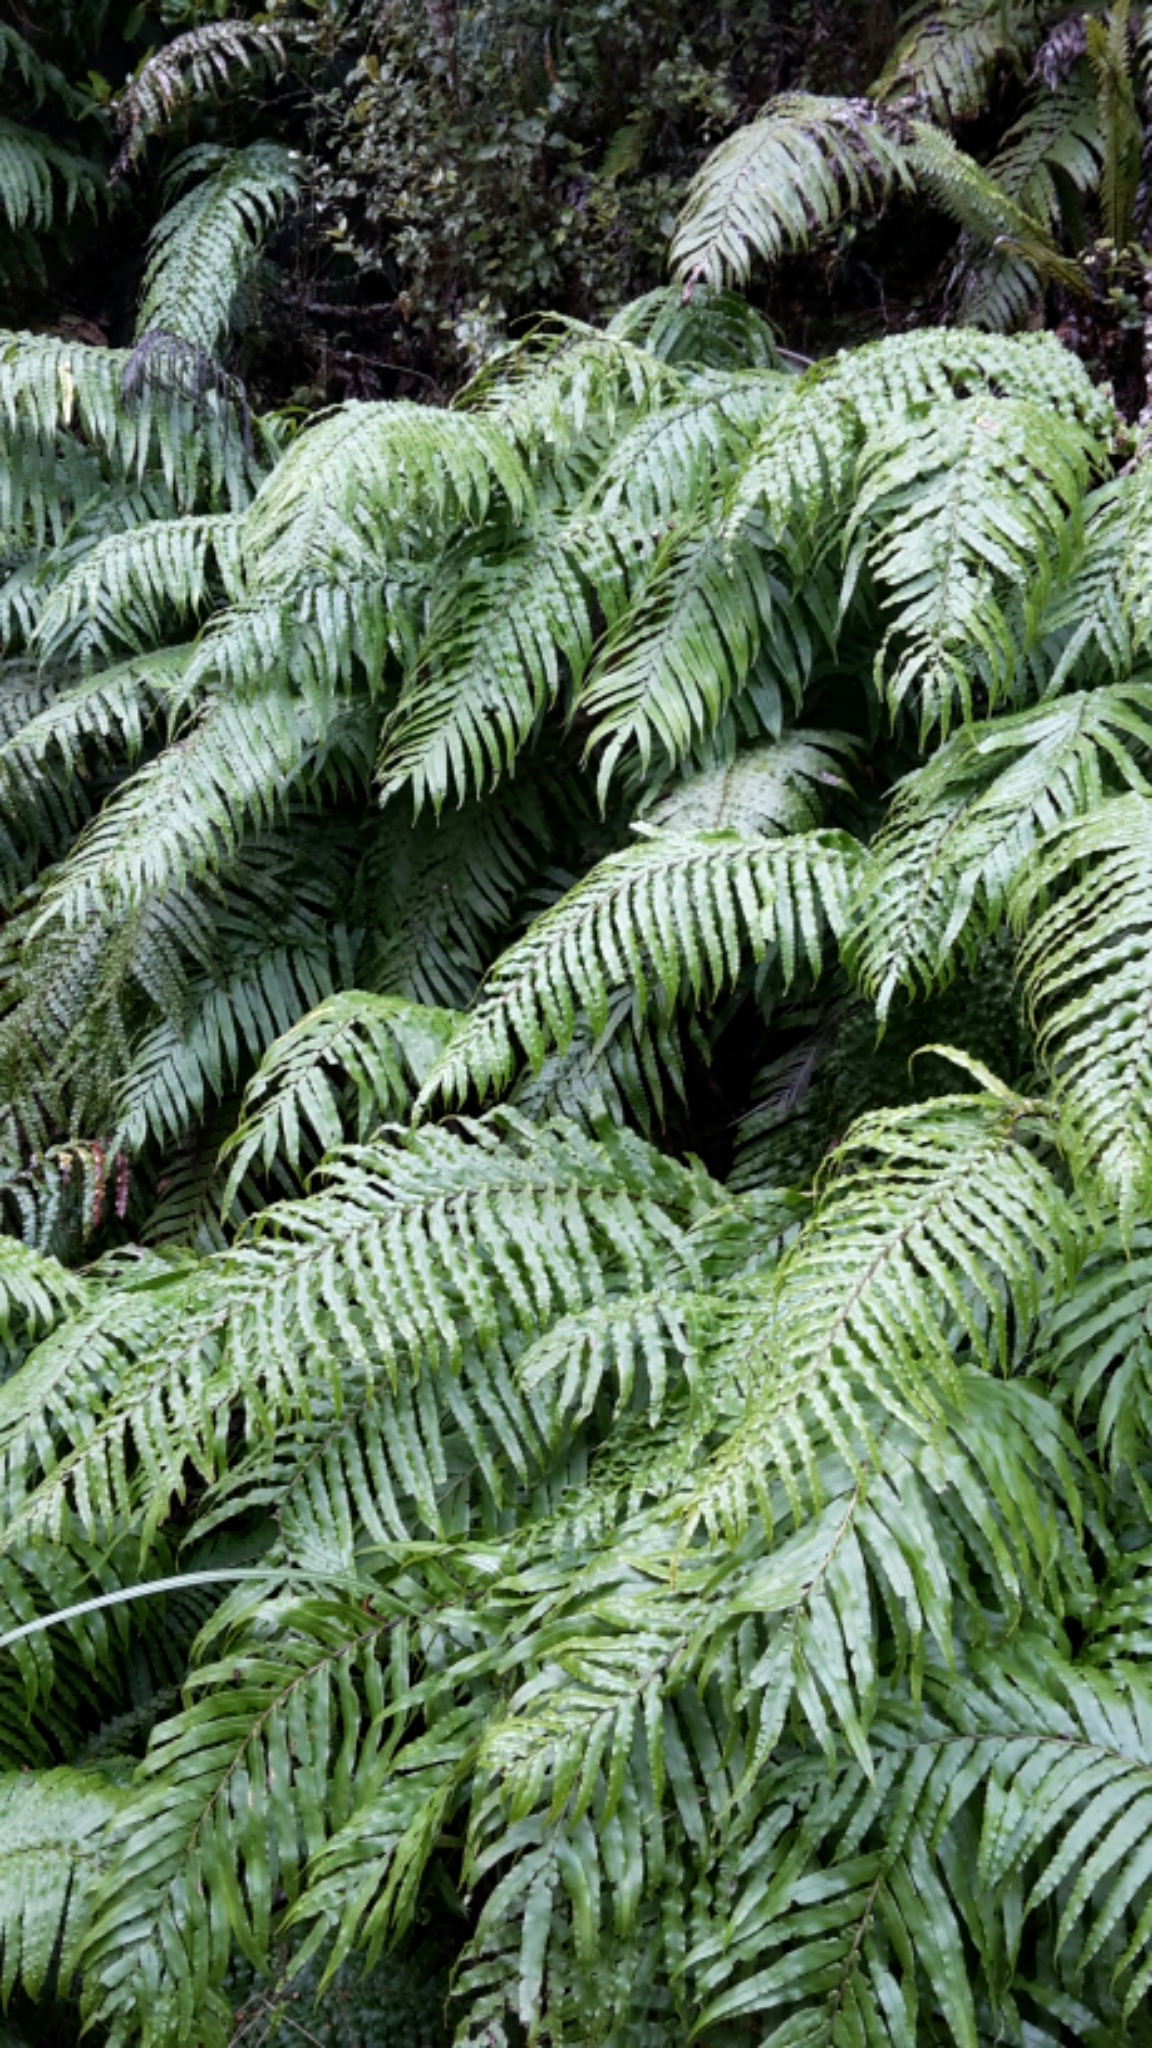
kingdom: Plantae
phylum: Tracheophyta
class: Polypodiopsida
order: Polypodiales
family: Blechnaceae
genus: Parablechnum
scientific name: Parablechnum novae-zelandiae
